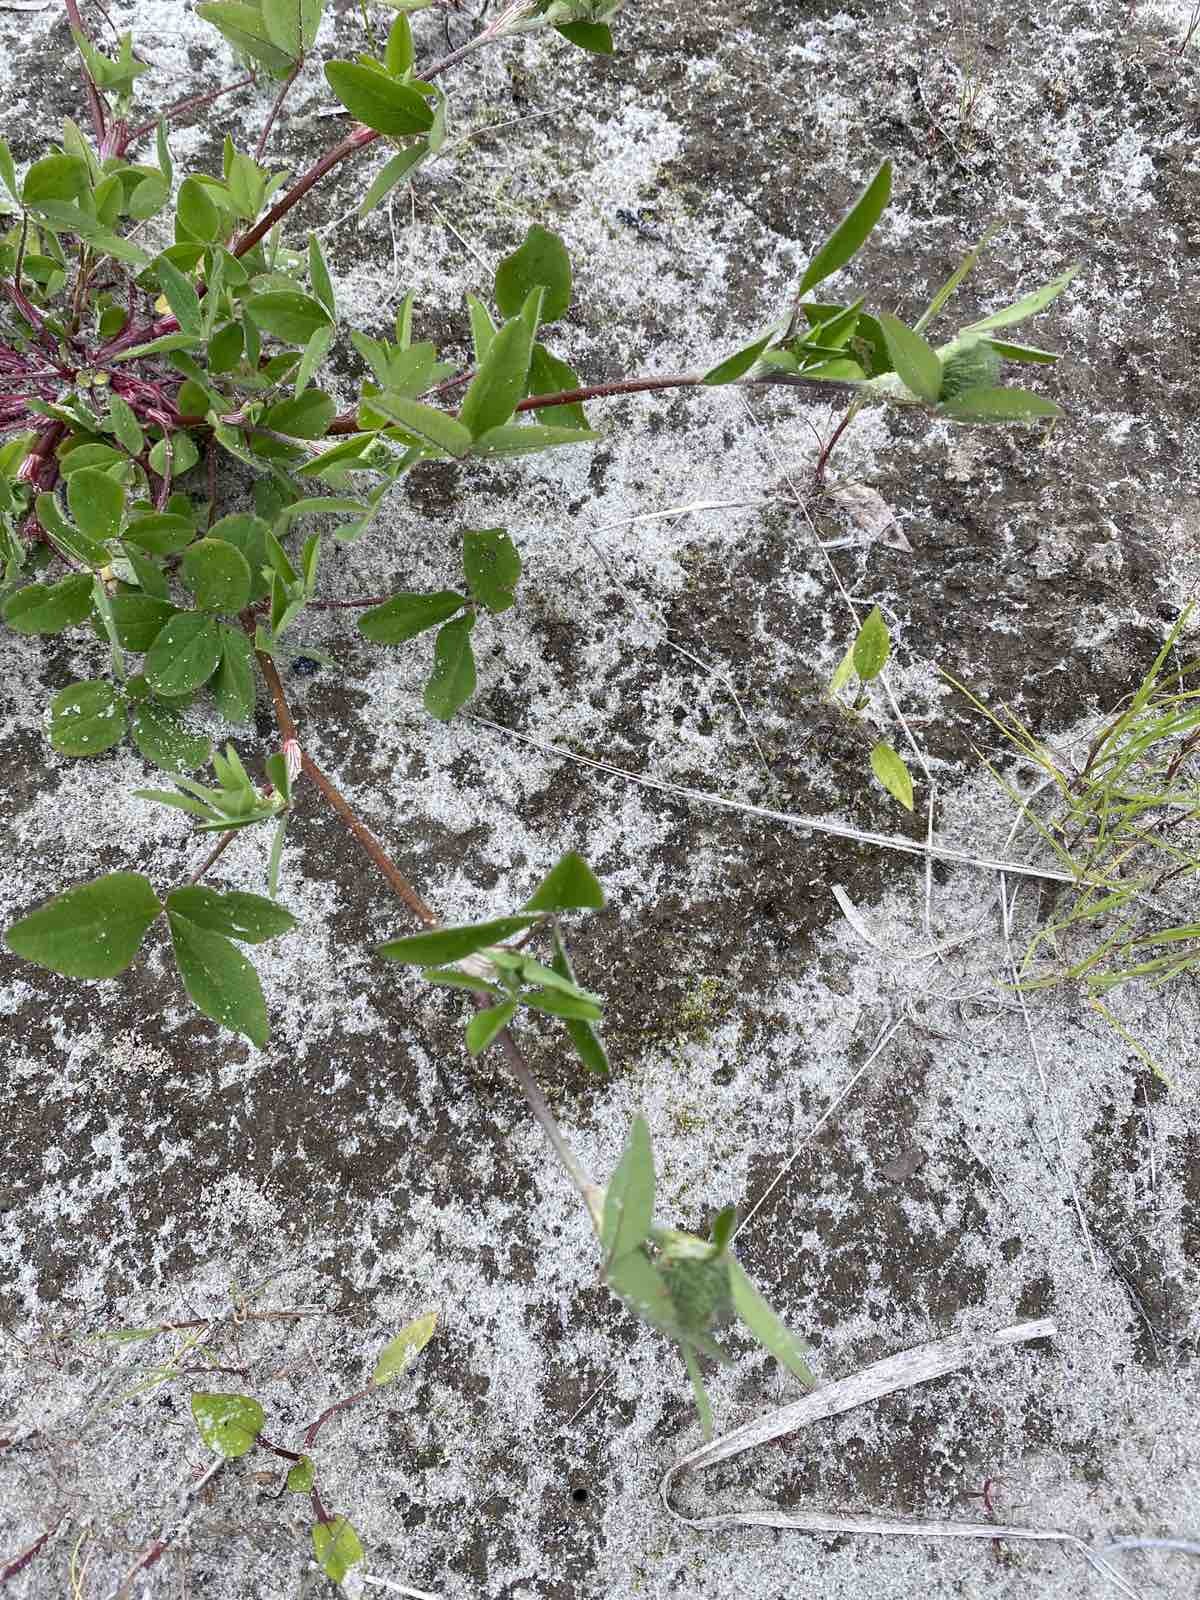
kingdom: Plantae
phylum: Tracheophyta
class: Magnoliopsida
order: Fabales
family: Fabaceae
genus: Trifolium
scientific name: Trifolium hybridum
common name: Alsike clover
